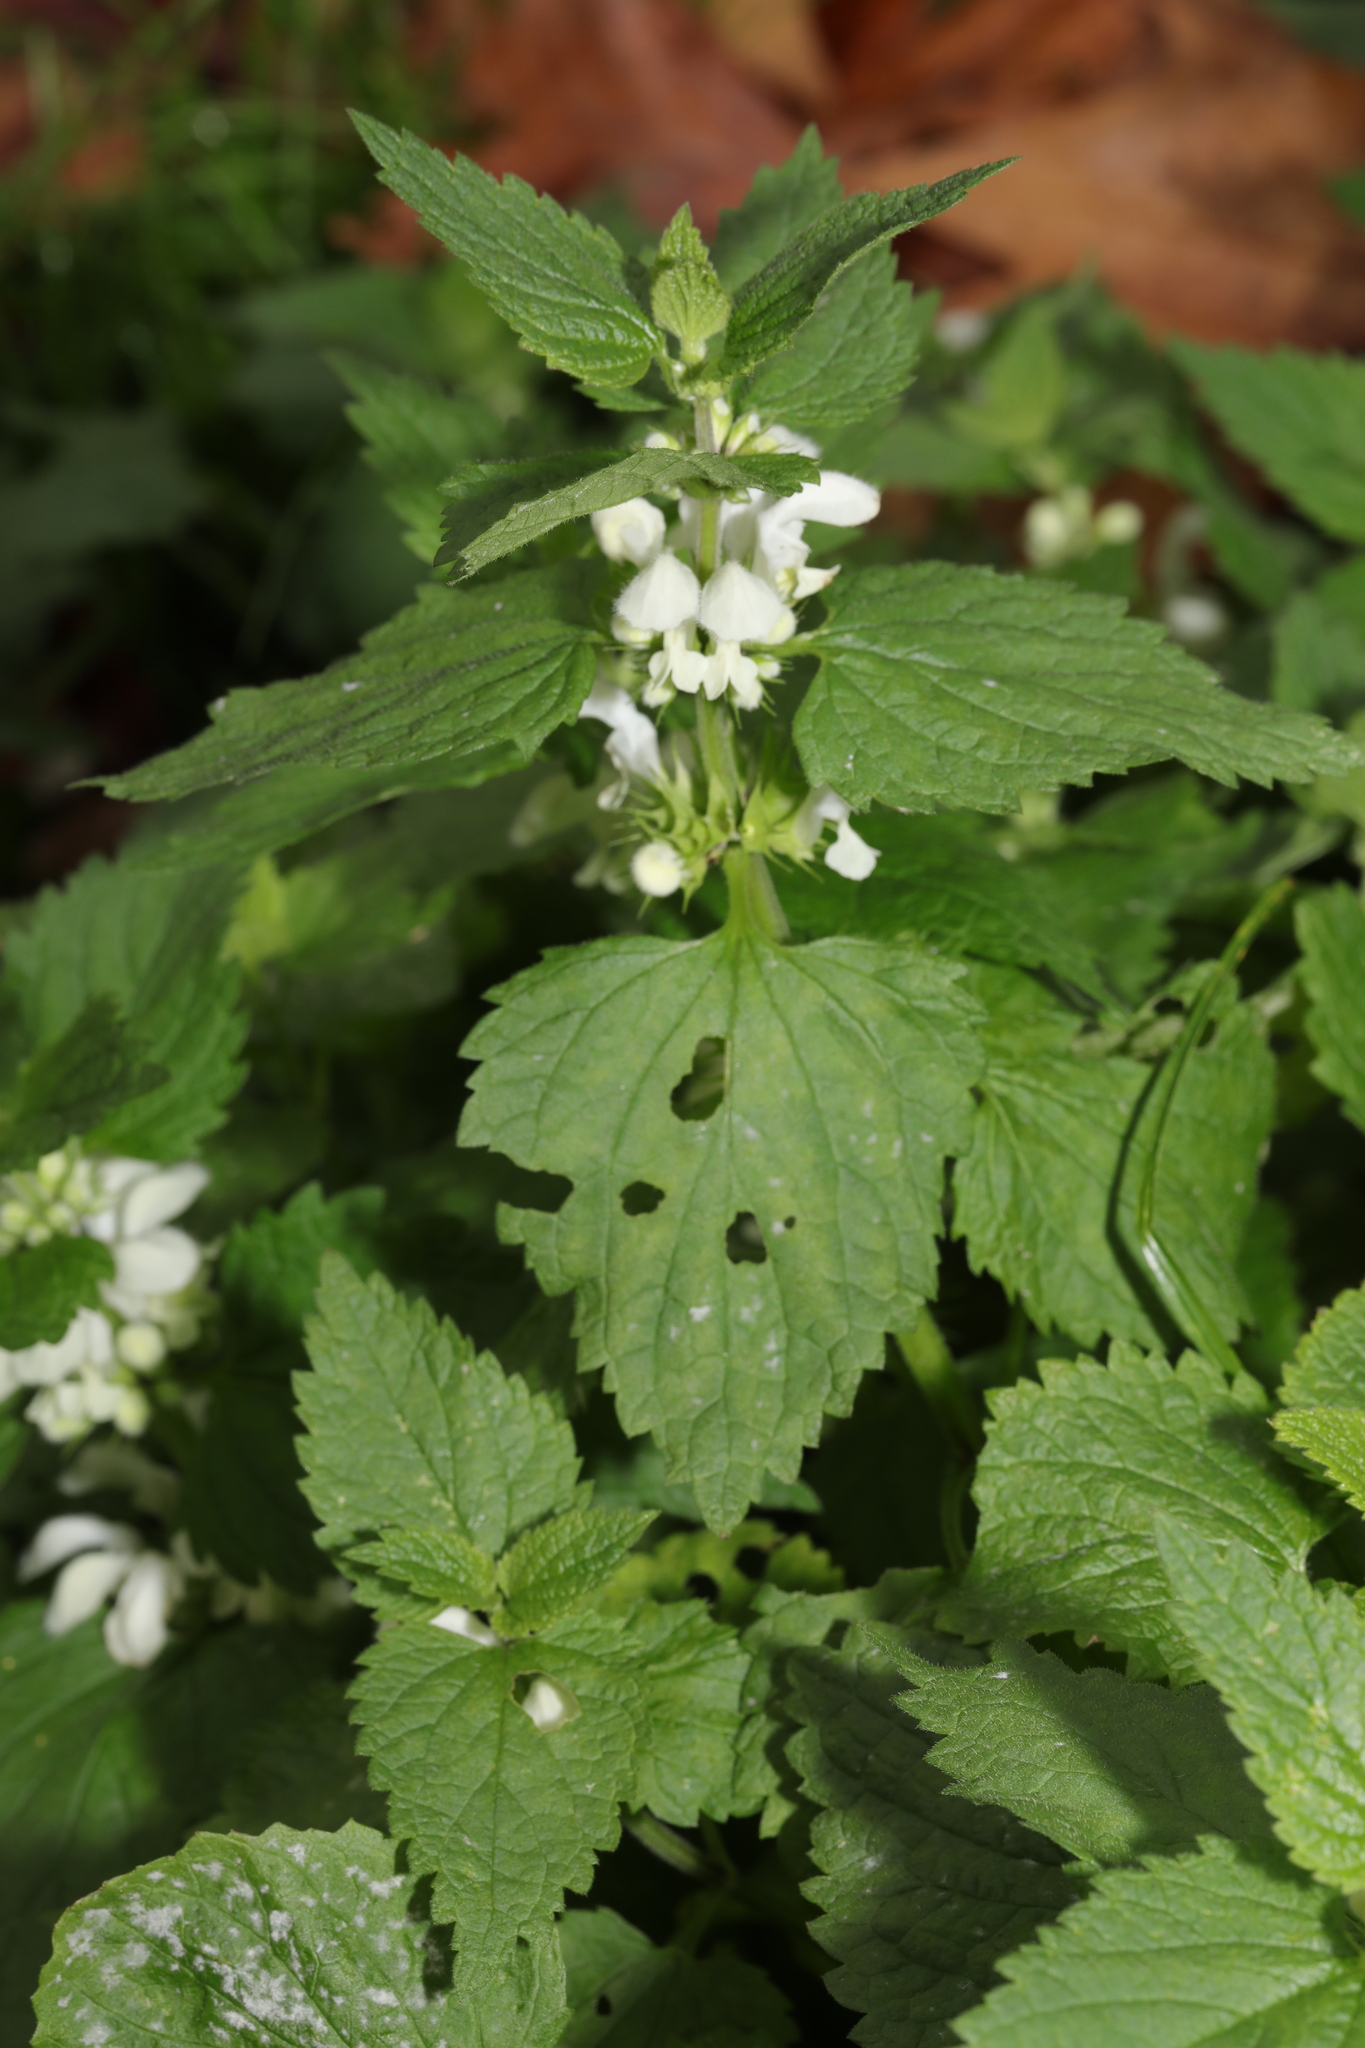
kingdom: Plantae
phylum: Tracheophyta
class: Magnoliopsida
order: Lamiales
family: Lamiaceae
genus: Lamium
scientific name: Lamium album
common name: White dead-nettle
